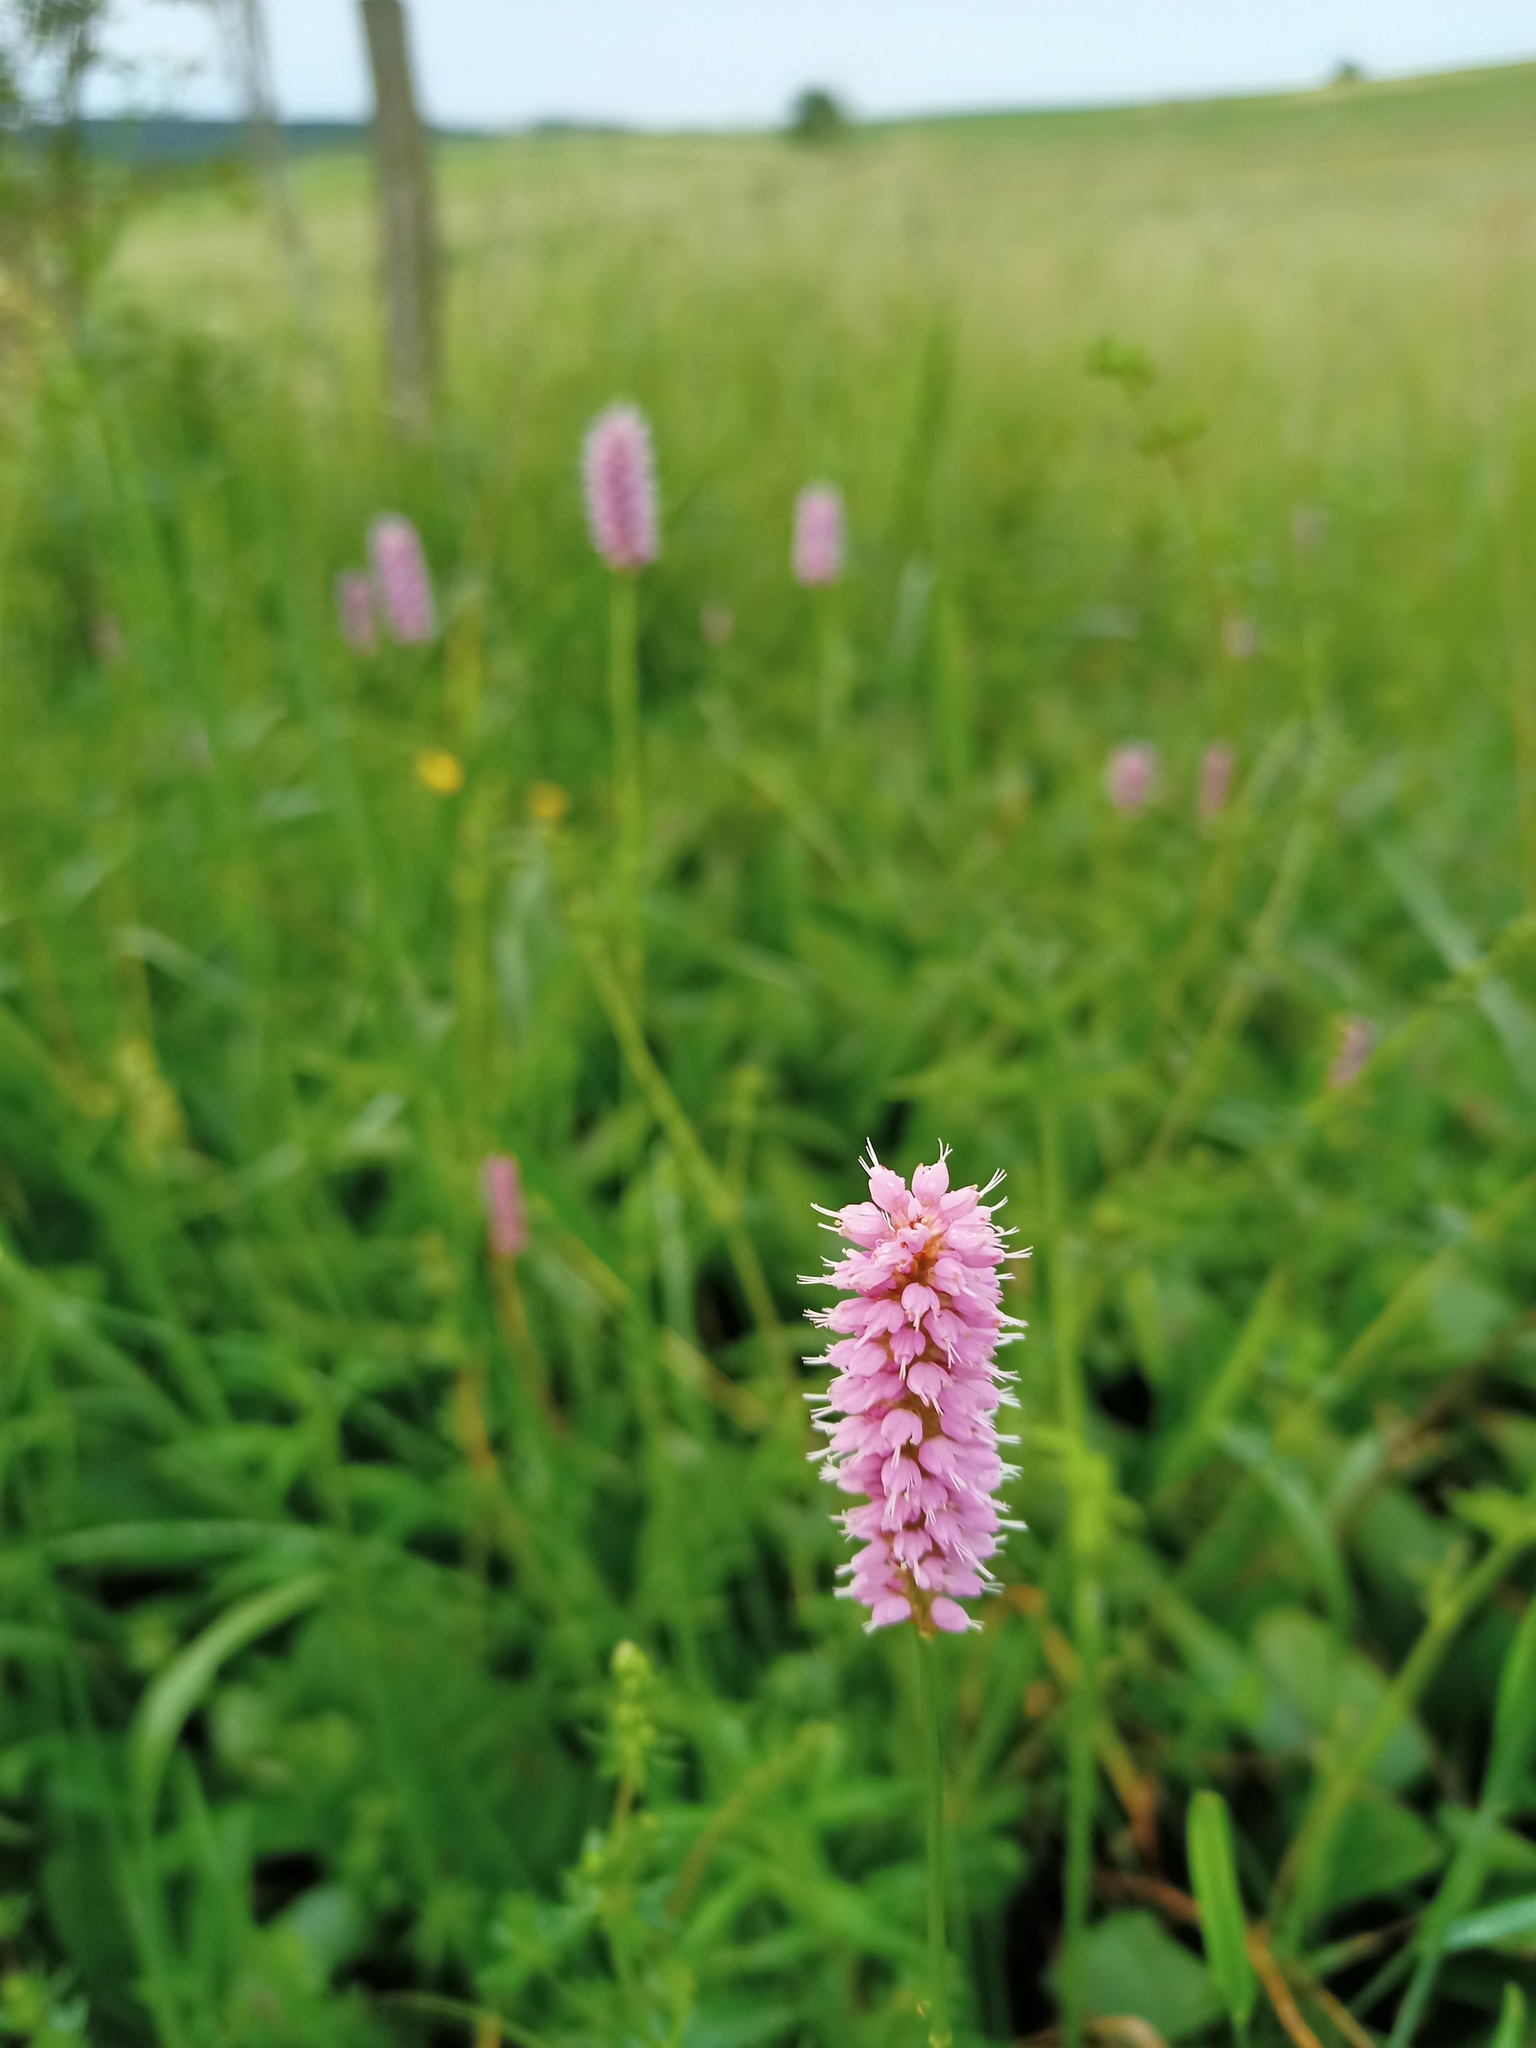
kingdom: Plantae
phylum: Tracheophyta
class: Magnoliopsida
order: Caryophyllales
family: Polygonaceae
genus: Bistorta
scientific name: Bistorta officinalis
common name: Common bistort
